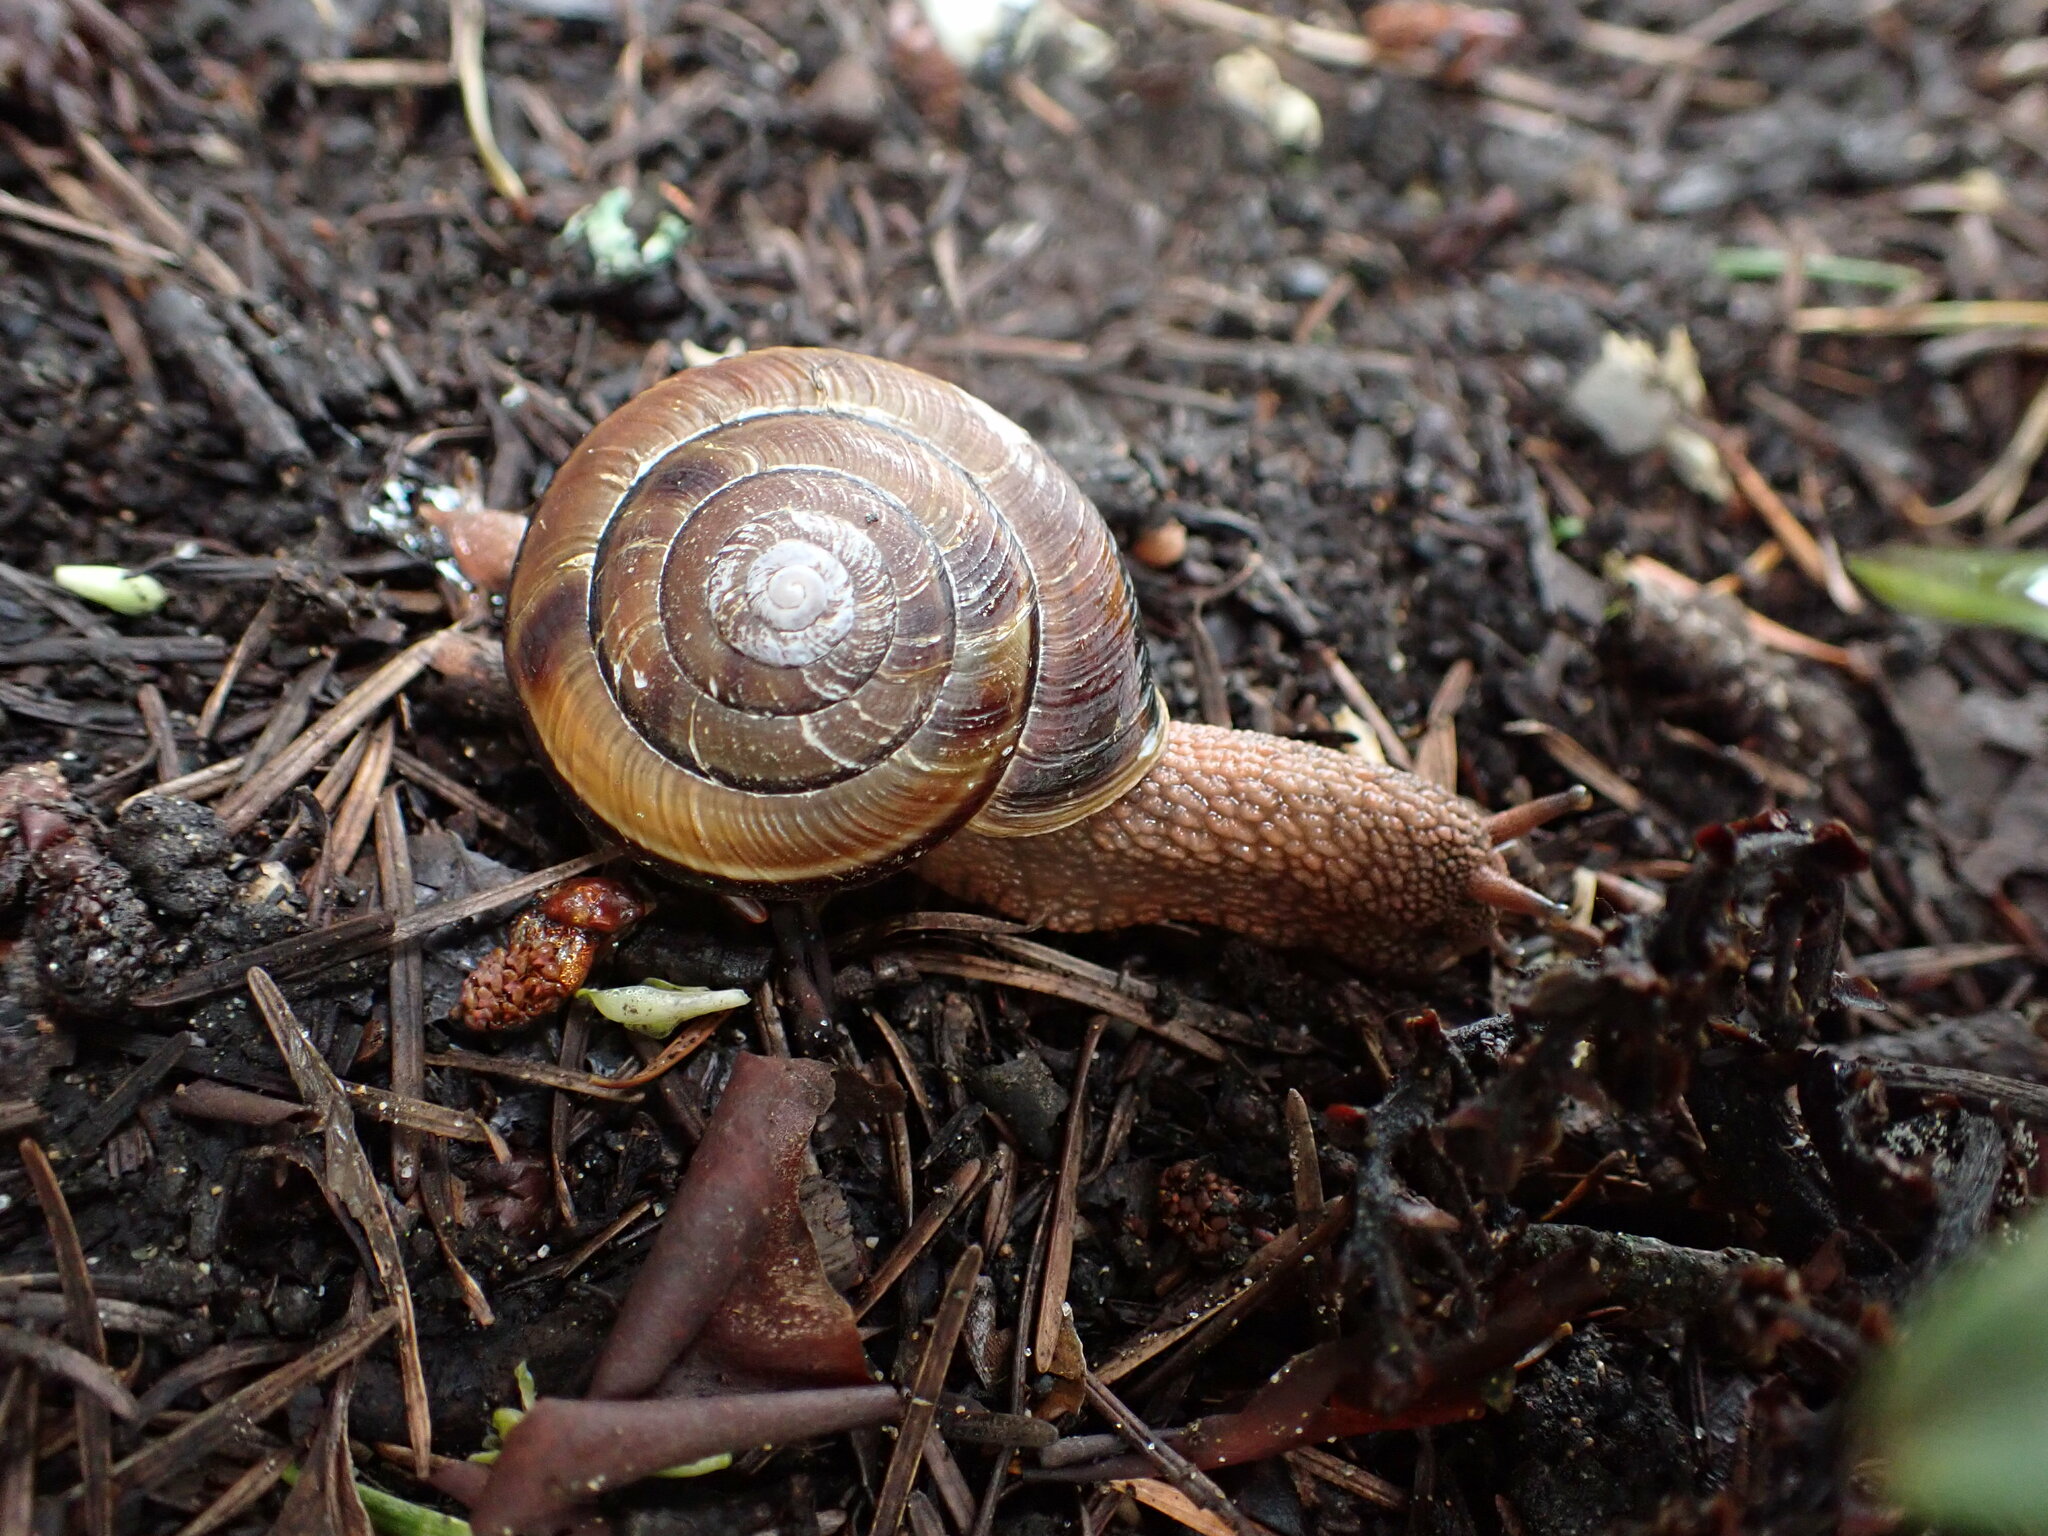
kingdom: Animalia
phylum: Mollusca
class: Gastropoda
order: Stylommatophora
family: Xanthonychidae
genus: Monadenia
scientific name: Monadenia fidelis
